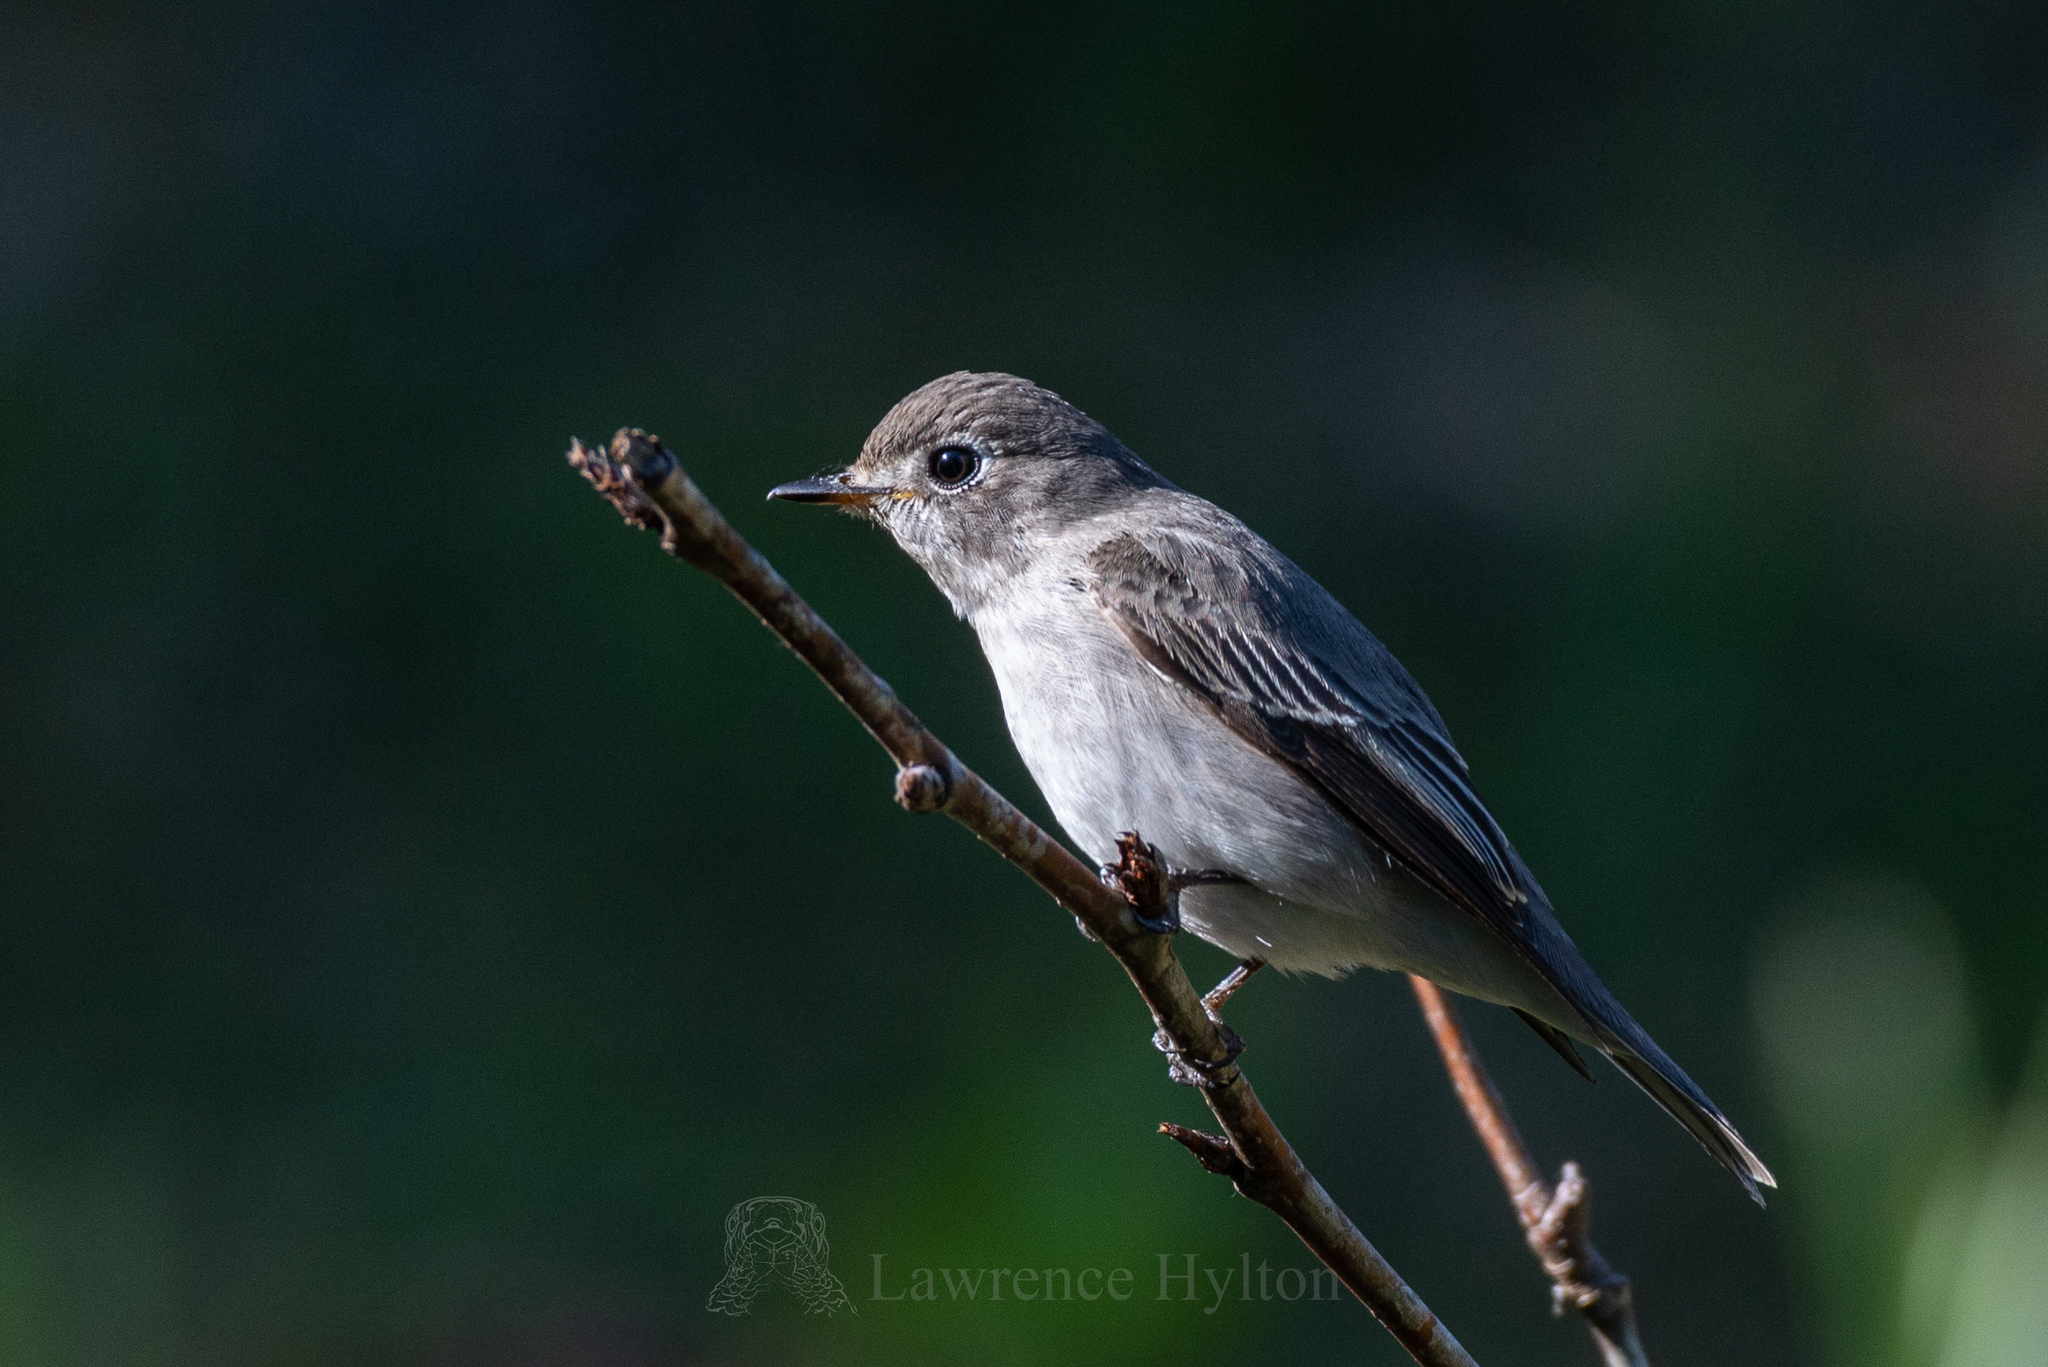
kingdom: Animalia
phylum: Chordata
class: Aves
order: Passeriformes
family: Muscicapidae
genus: Muscicapa
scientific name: Muscicapa latirostris
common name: Asian brown flycatcher
